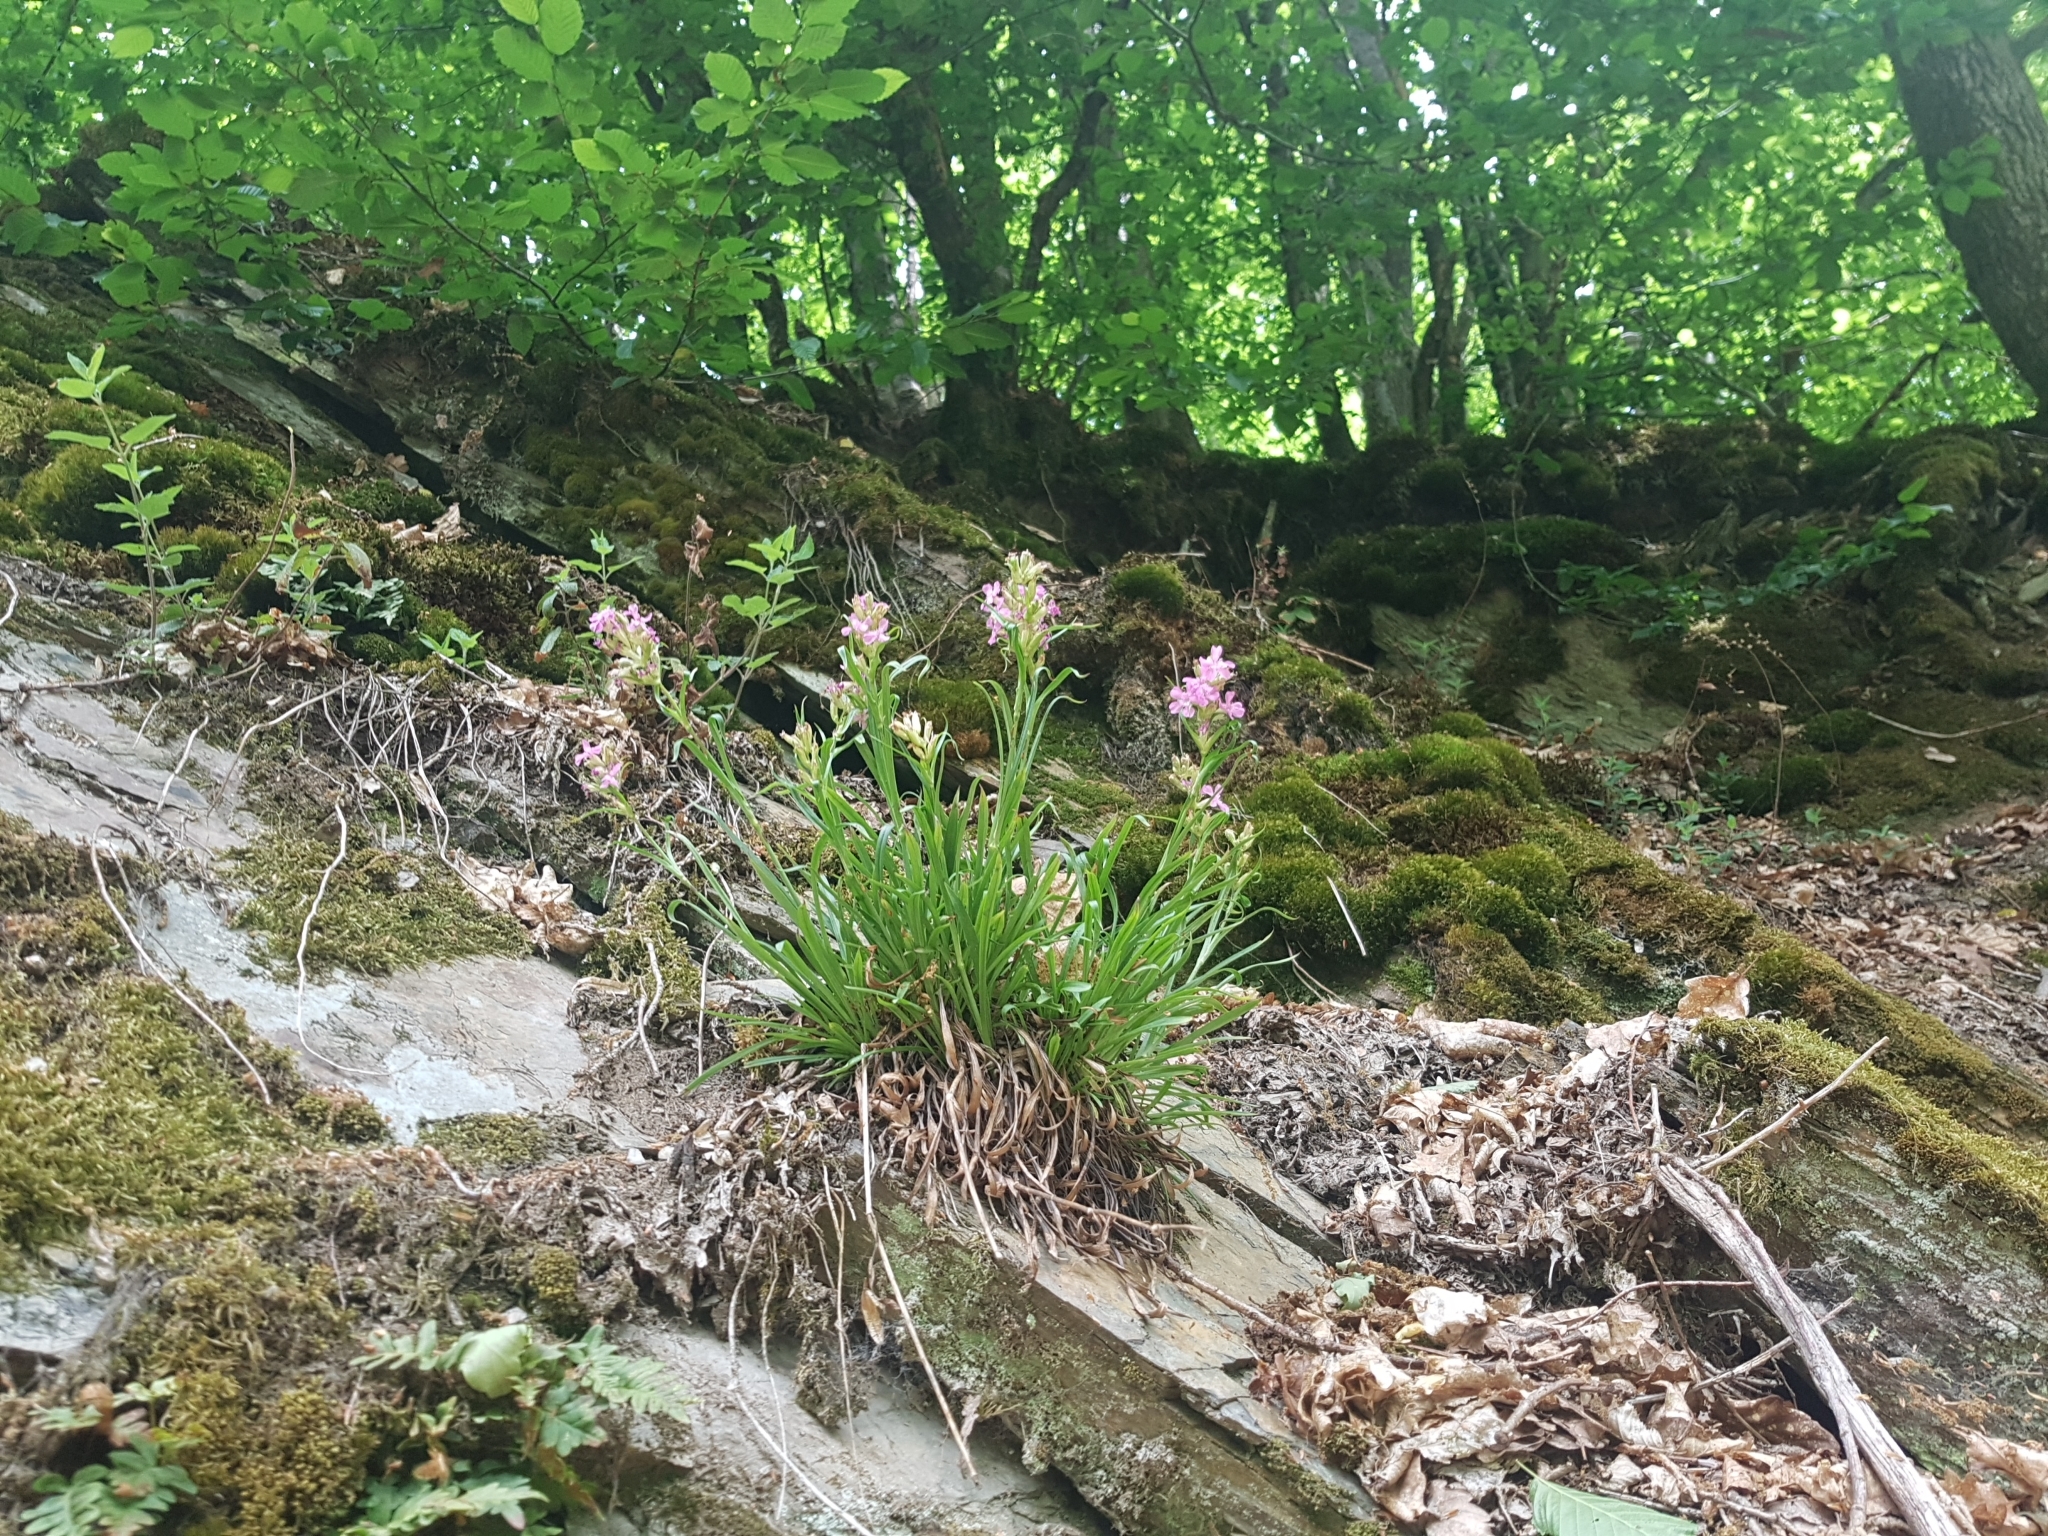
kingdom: Plantae
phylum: Tracheophyta
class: Magnoliopsida
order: Caryophyllales
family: Caryophyllaceae
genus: Viscaria
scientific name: Viscaria vulgaris
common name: Clammy campion
